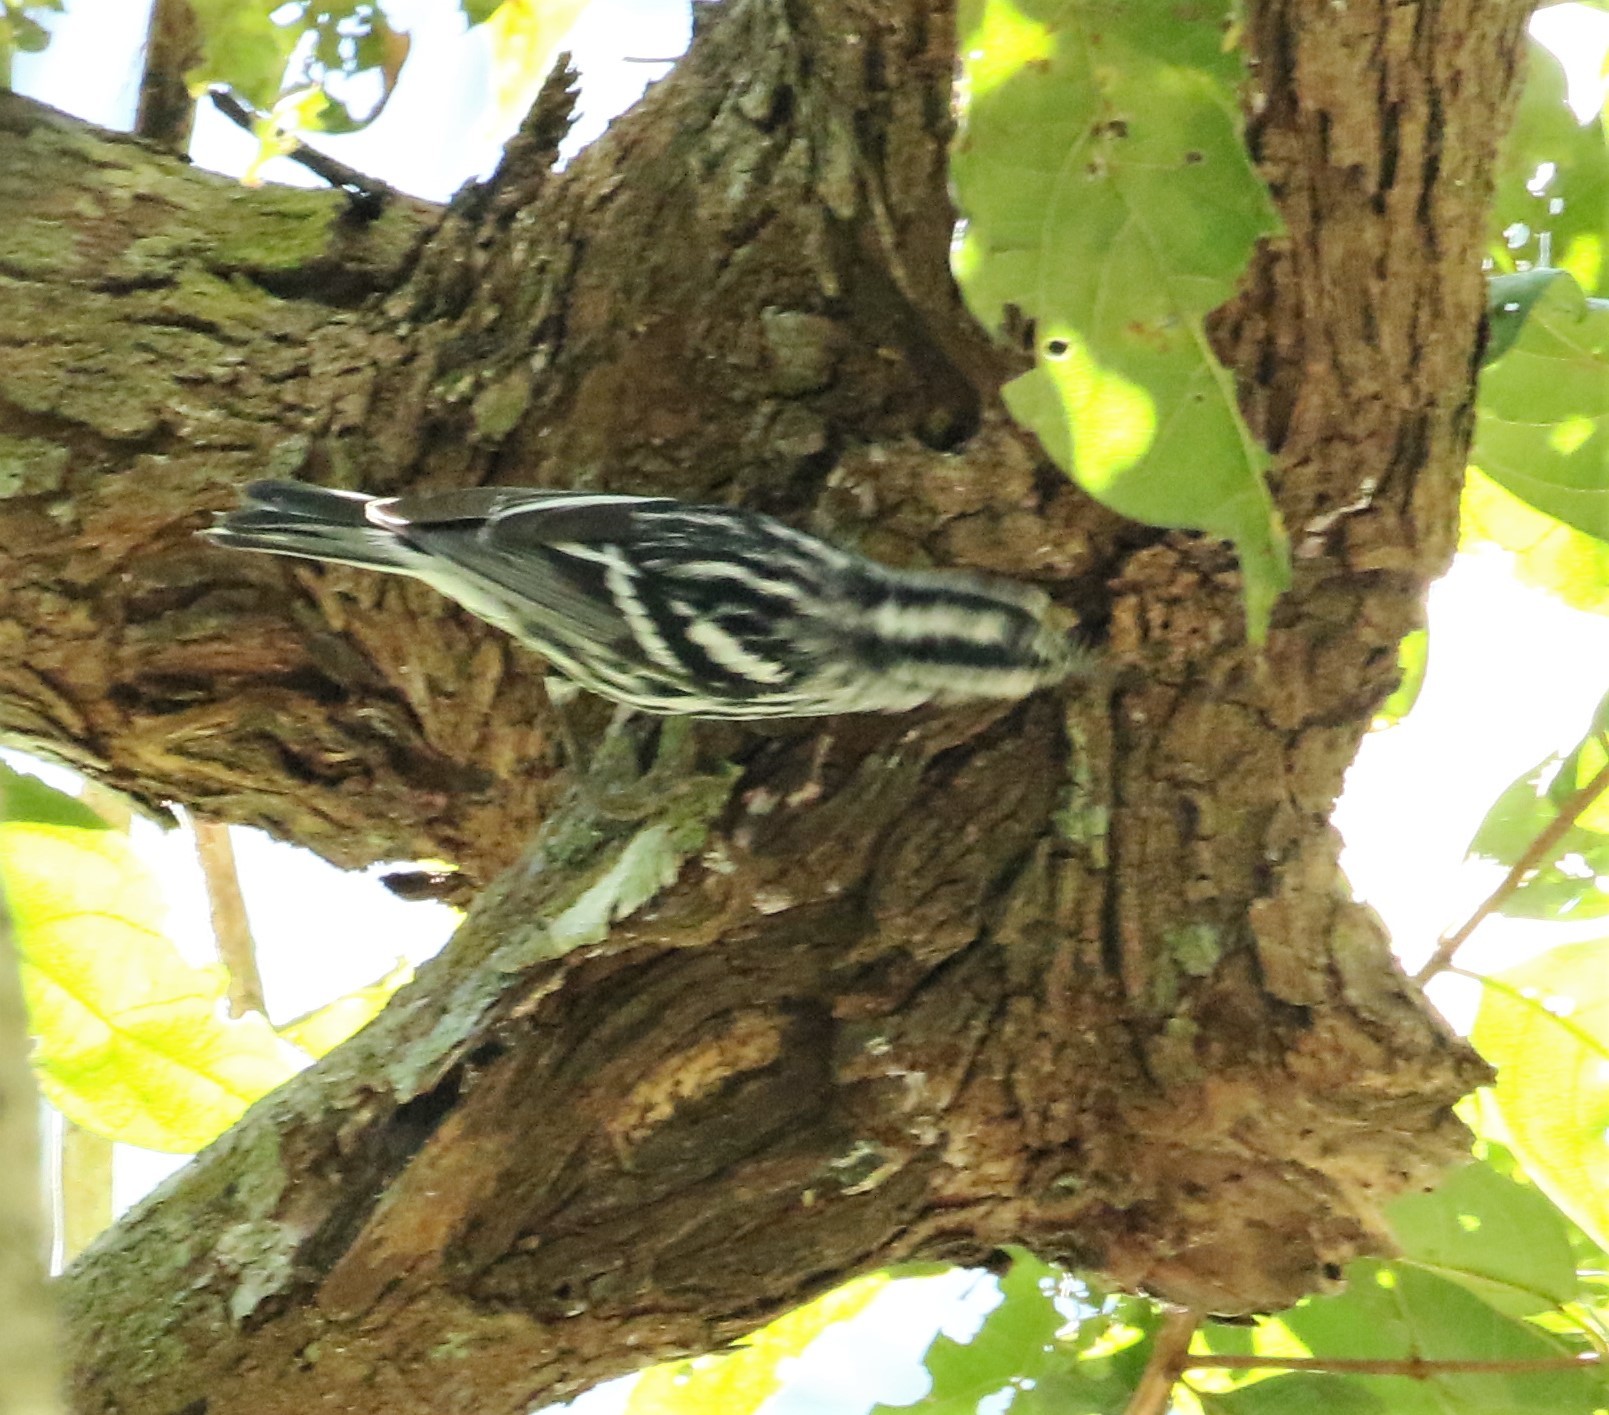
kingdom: Animalia
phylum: Chordata
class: Aves
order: Passeriformes
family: Parulidae
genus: Mniotilta
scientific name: Mniotilta varia
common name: Black-and-white warbler
